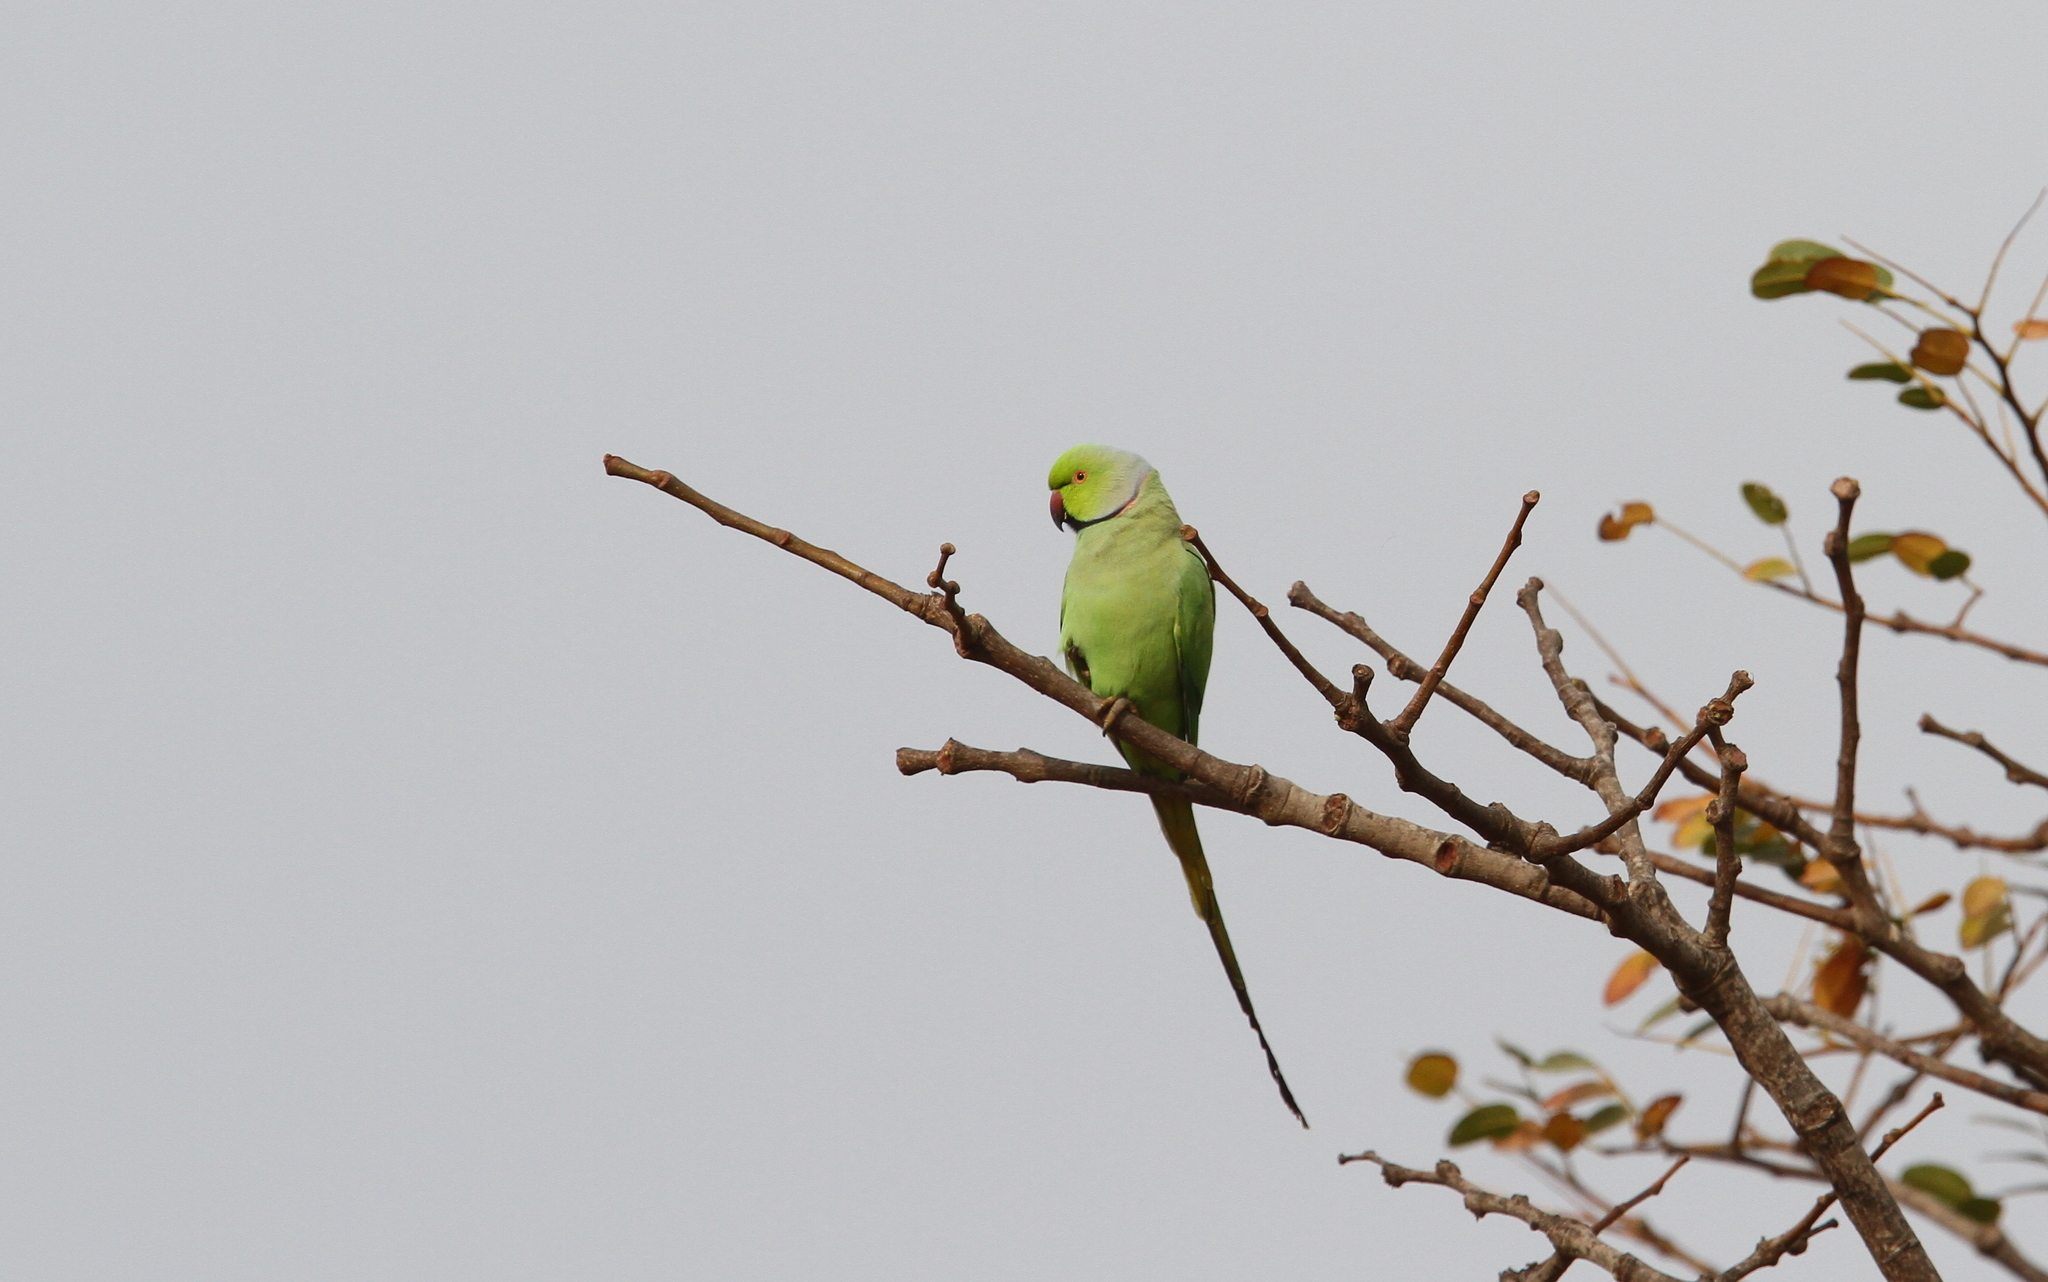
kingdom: Animalia
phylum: Chordata
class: Aves
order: Psittaciformes
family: Psittacidae
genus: Psittacula
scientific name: Psittacula krameri
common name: Rose-ringed parakeet
